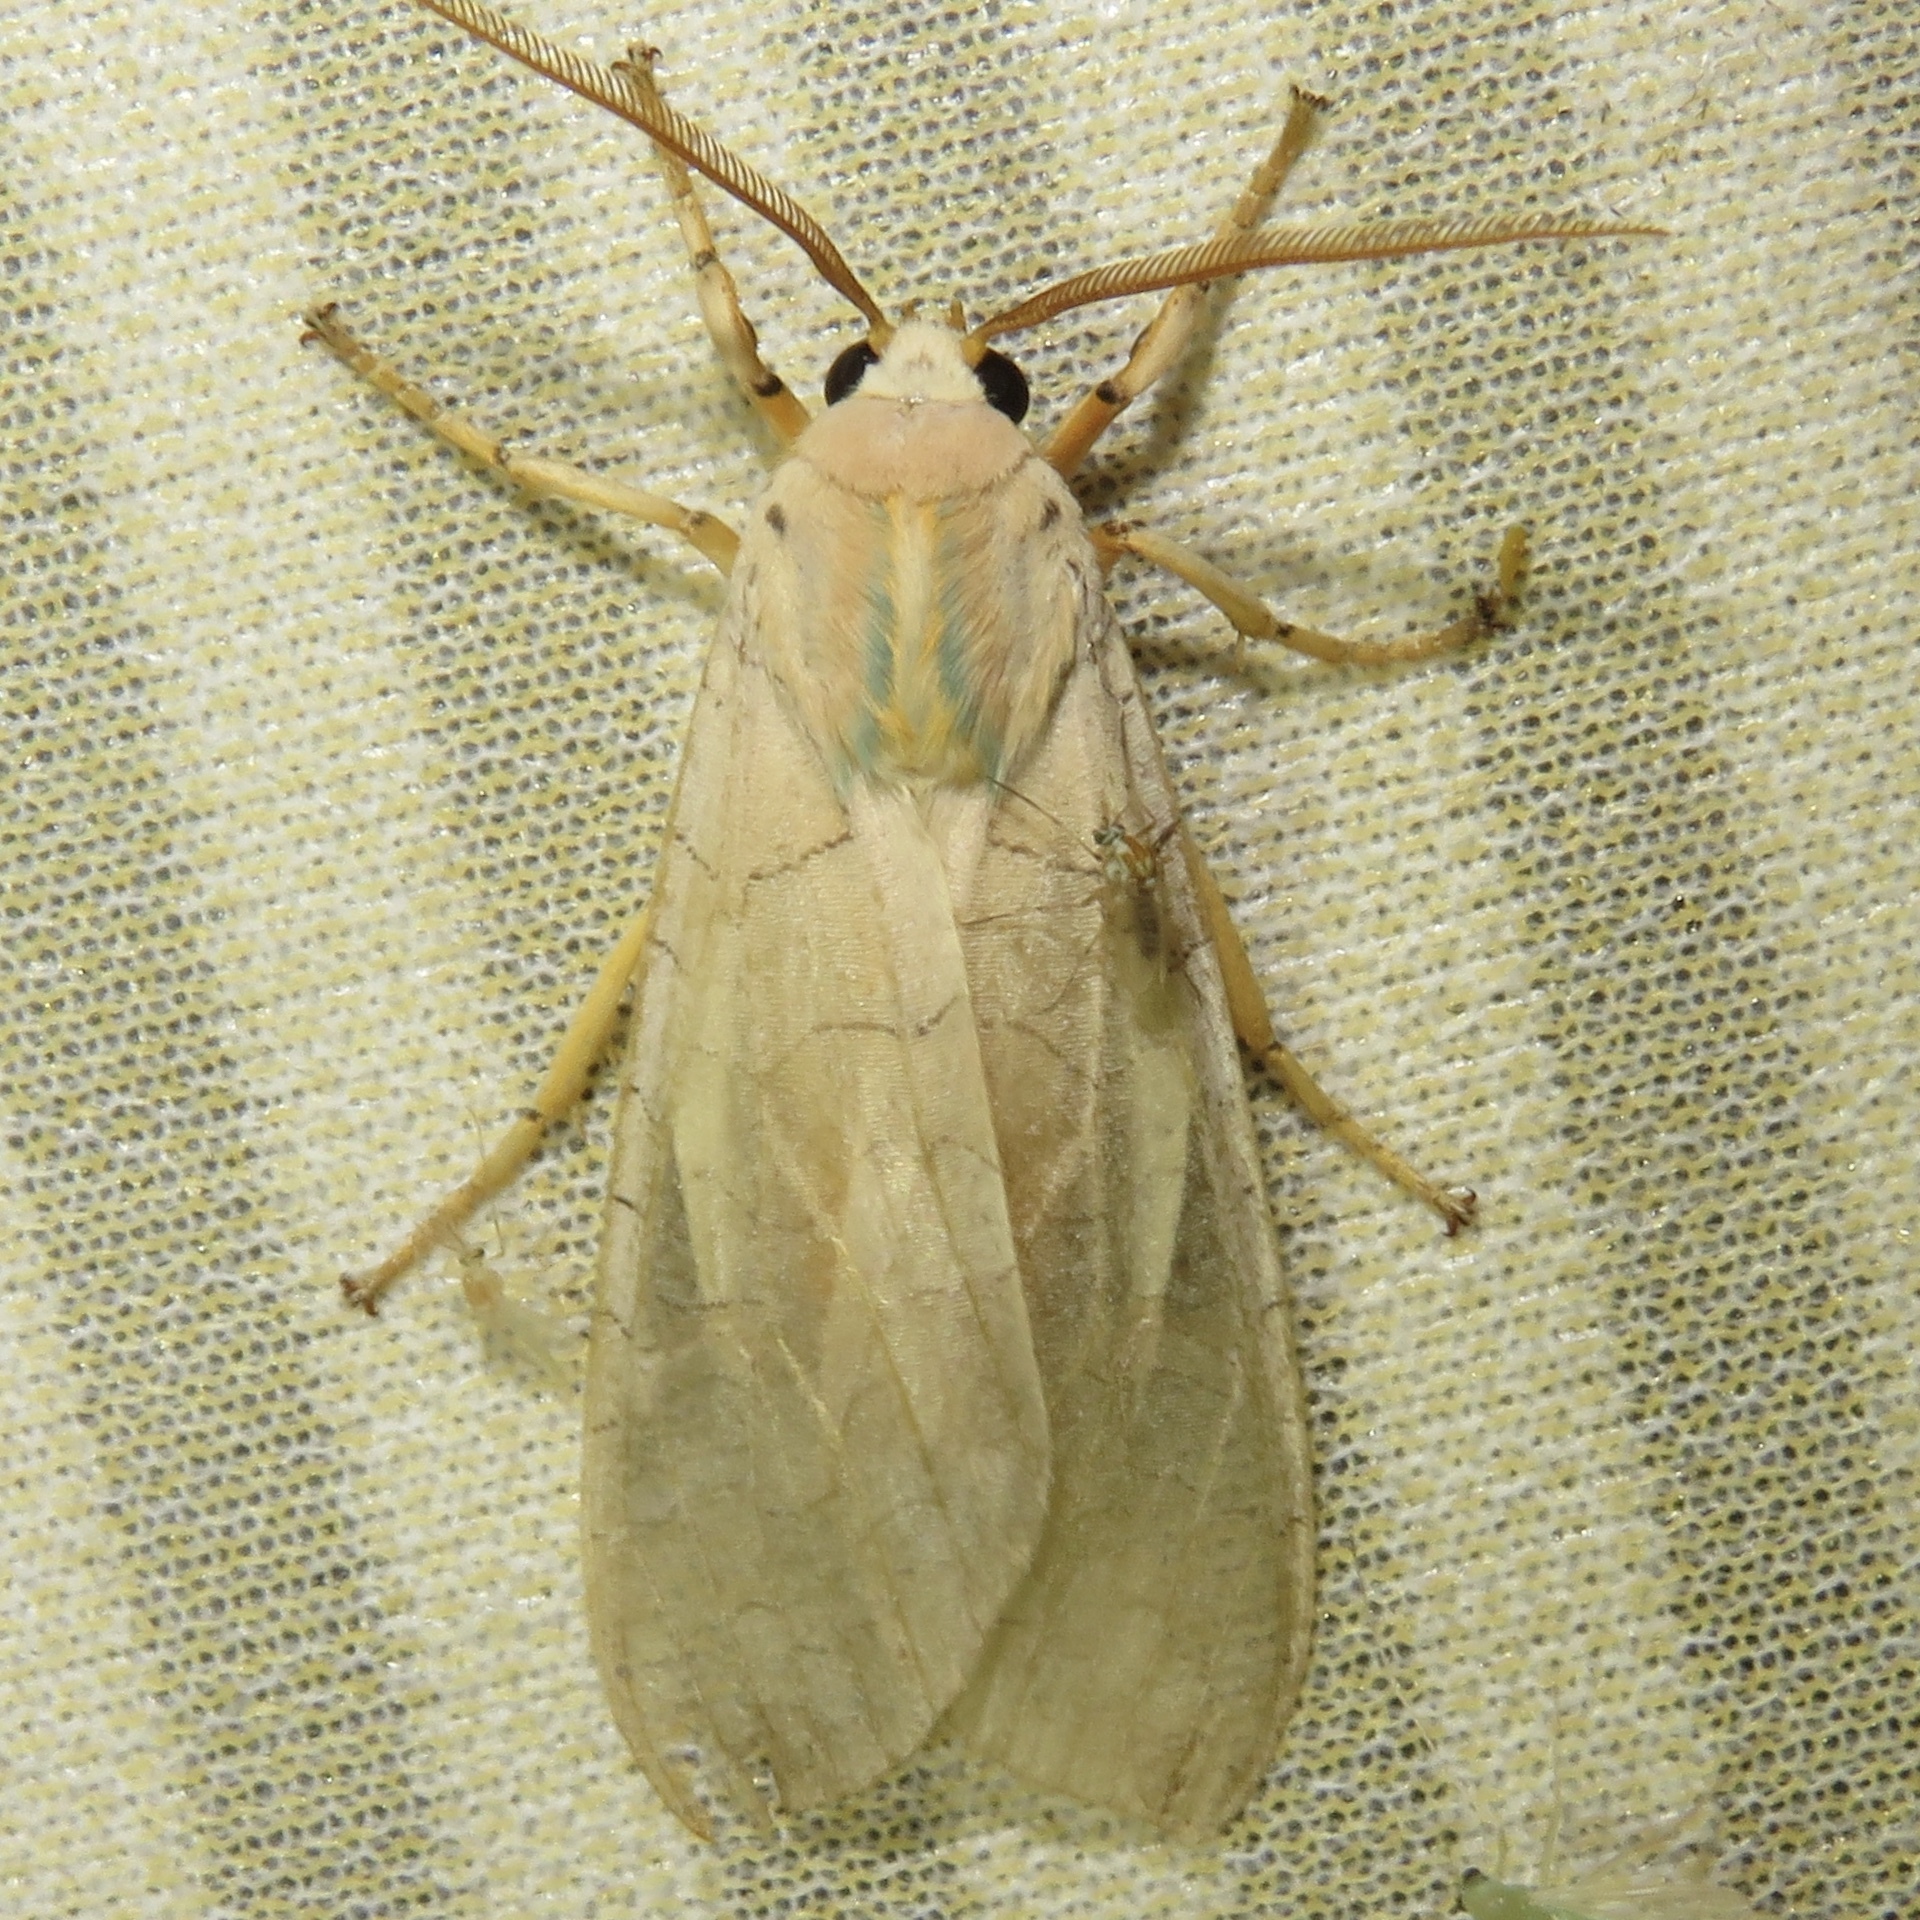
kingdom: Animalia
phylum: Arthropoda
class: Insecta
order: Lepidoptera
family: Erebidae
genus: Halysidota
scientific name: Halysidota tessellaris
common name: Banded tussock moth
